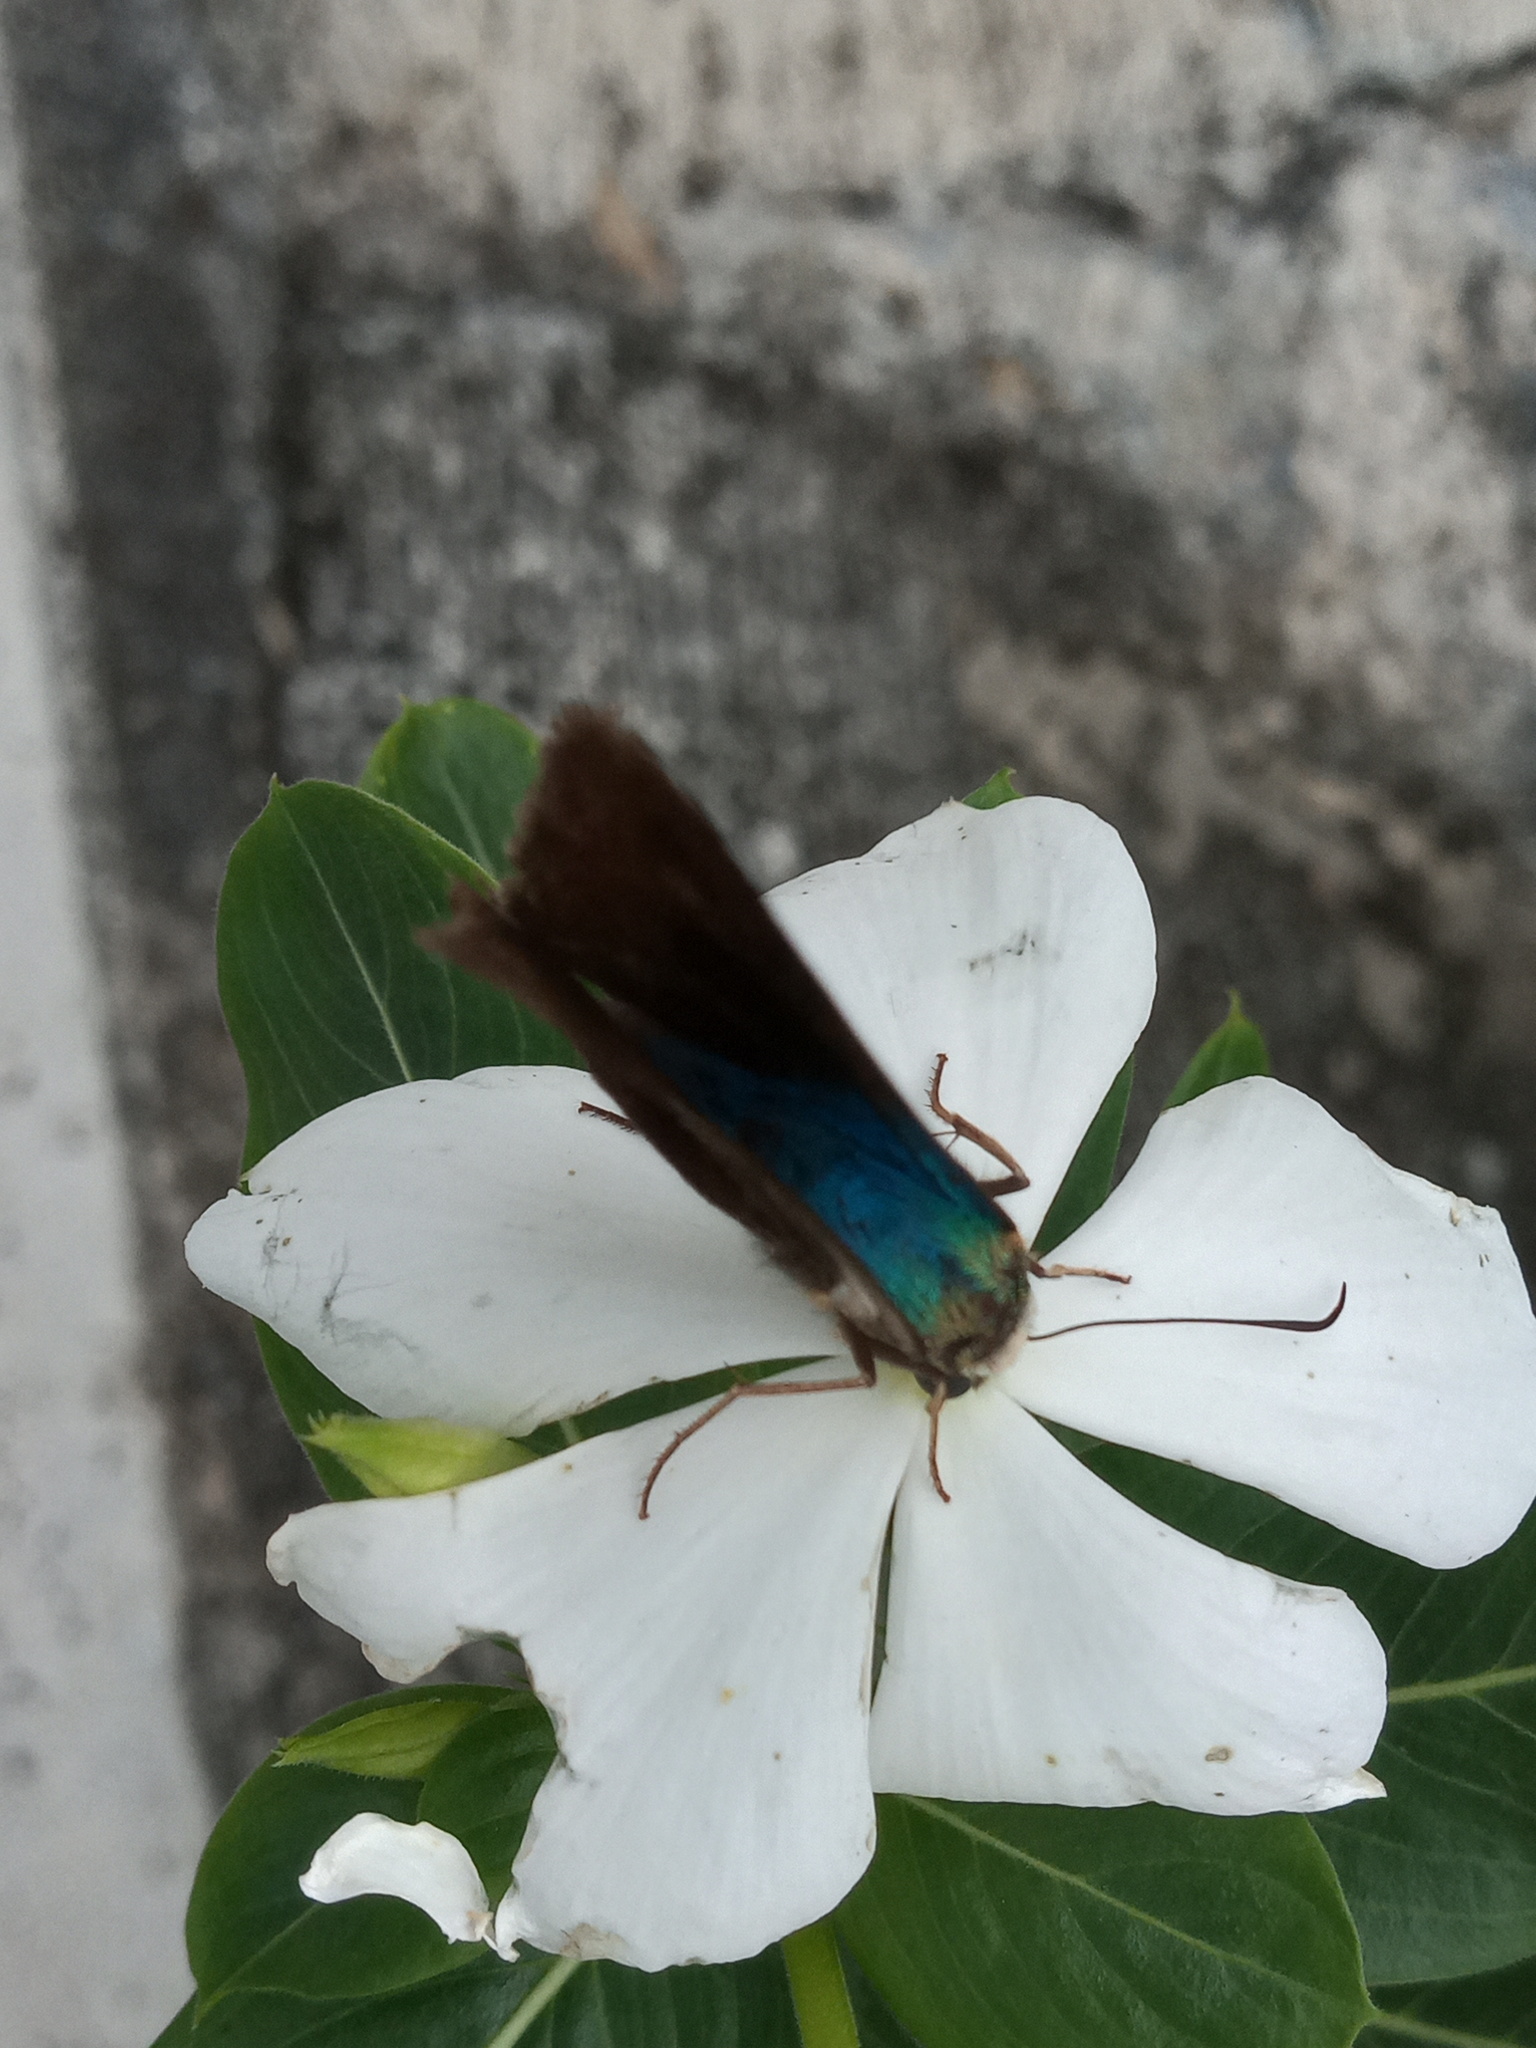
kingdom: Animalia
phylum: Arthropoda
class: Insecta
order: Lepidoptera
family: Hesperiidae
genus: Astraptes
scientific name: Astraptes alector
